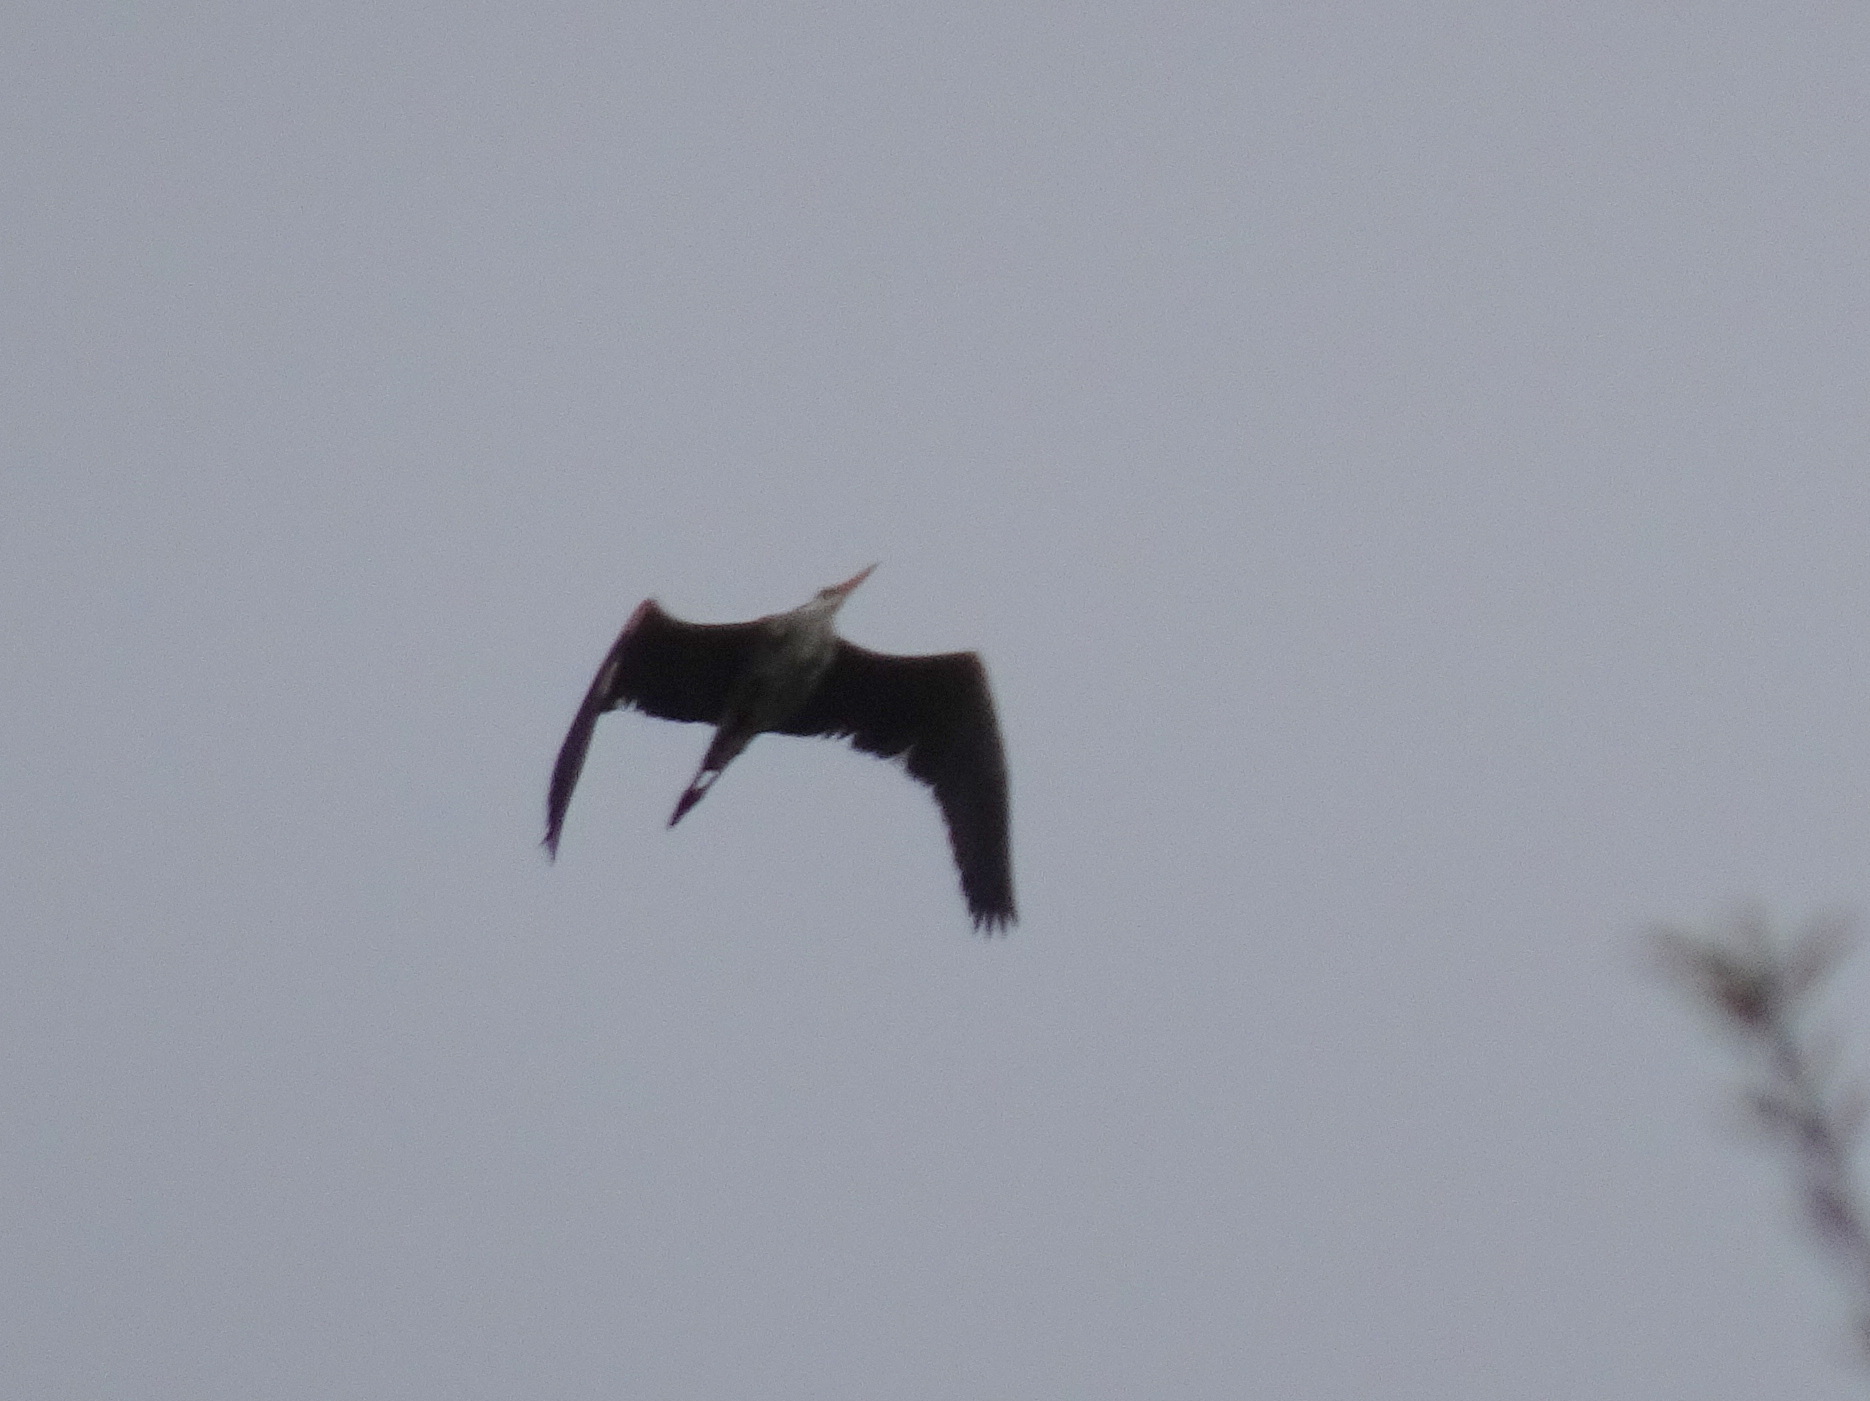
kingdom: Animalia
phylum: Chordata
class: Aves
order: Pelecaniformes
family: Ardeidae
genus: Ardea
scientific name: Ardea herodias
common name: Great blue heron
